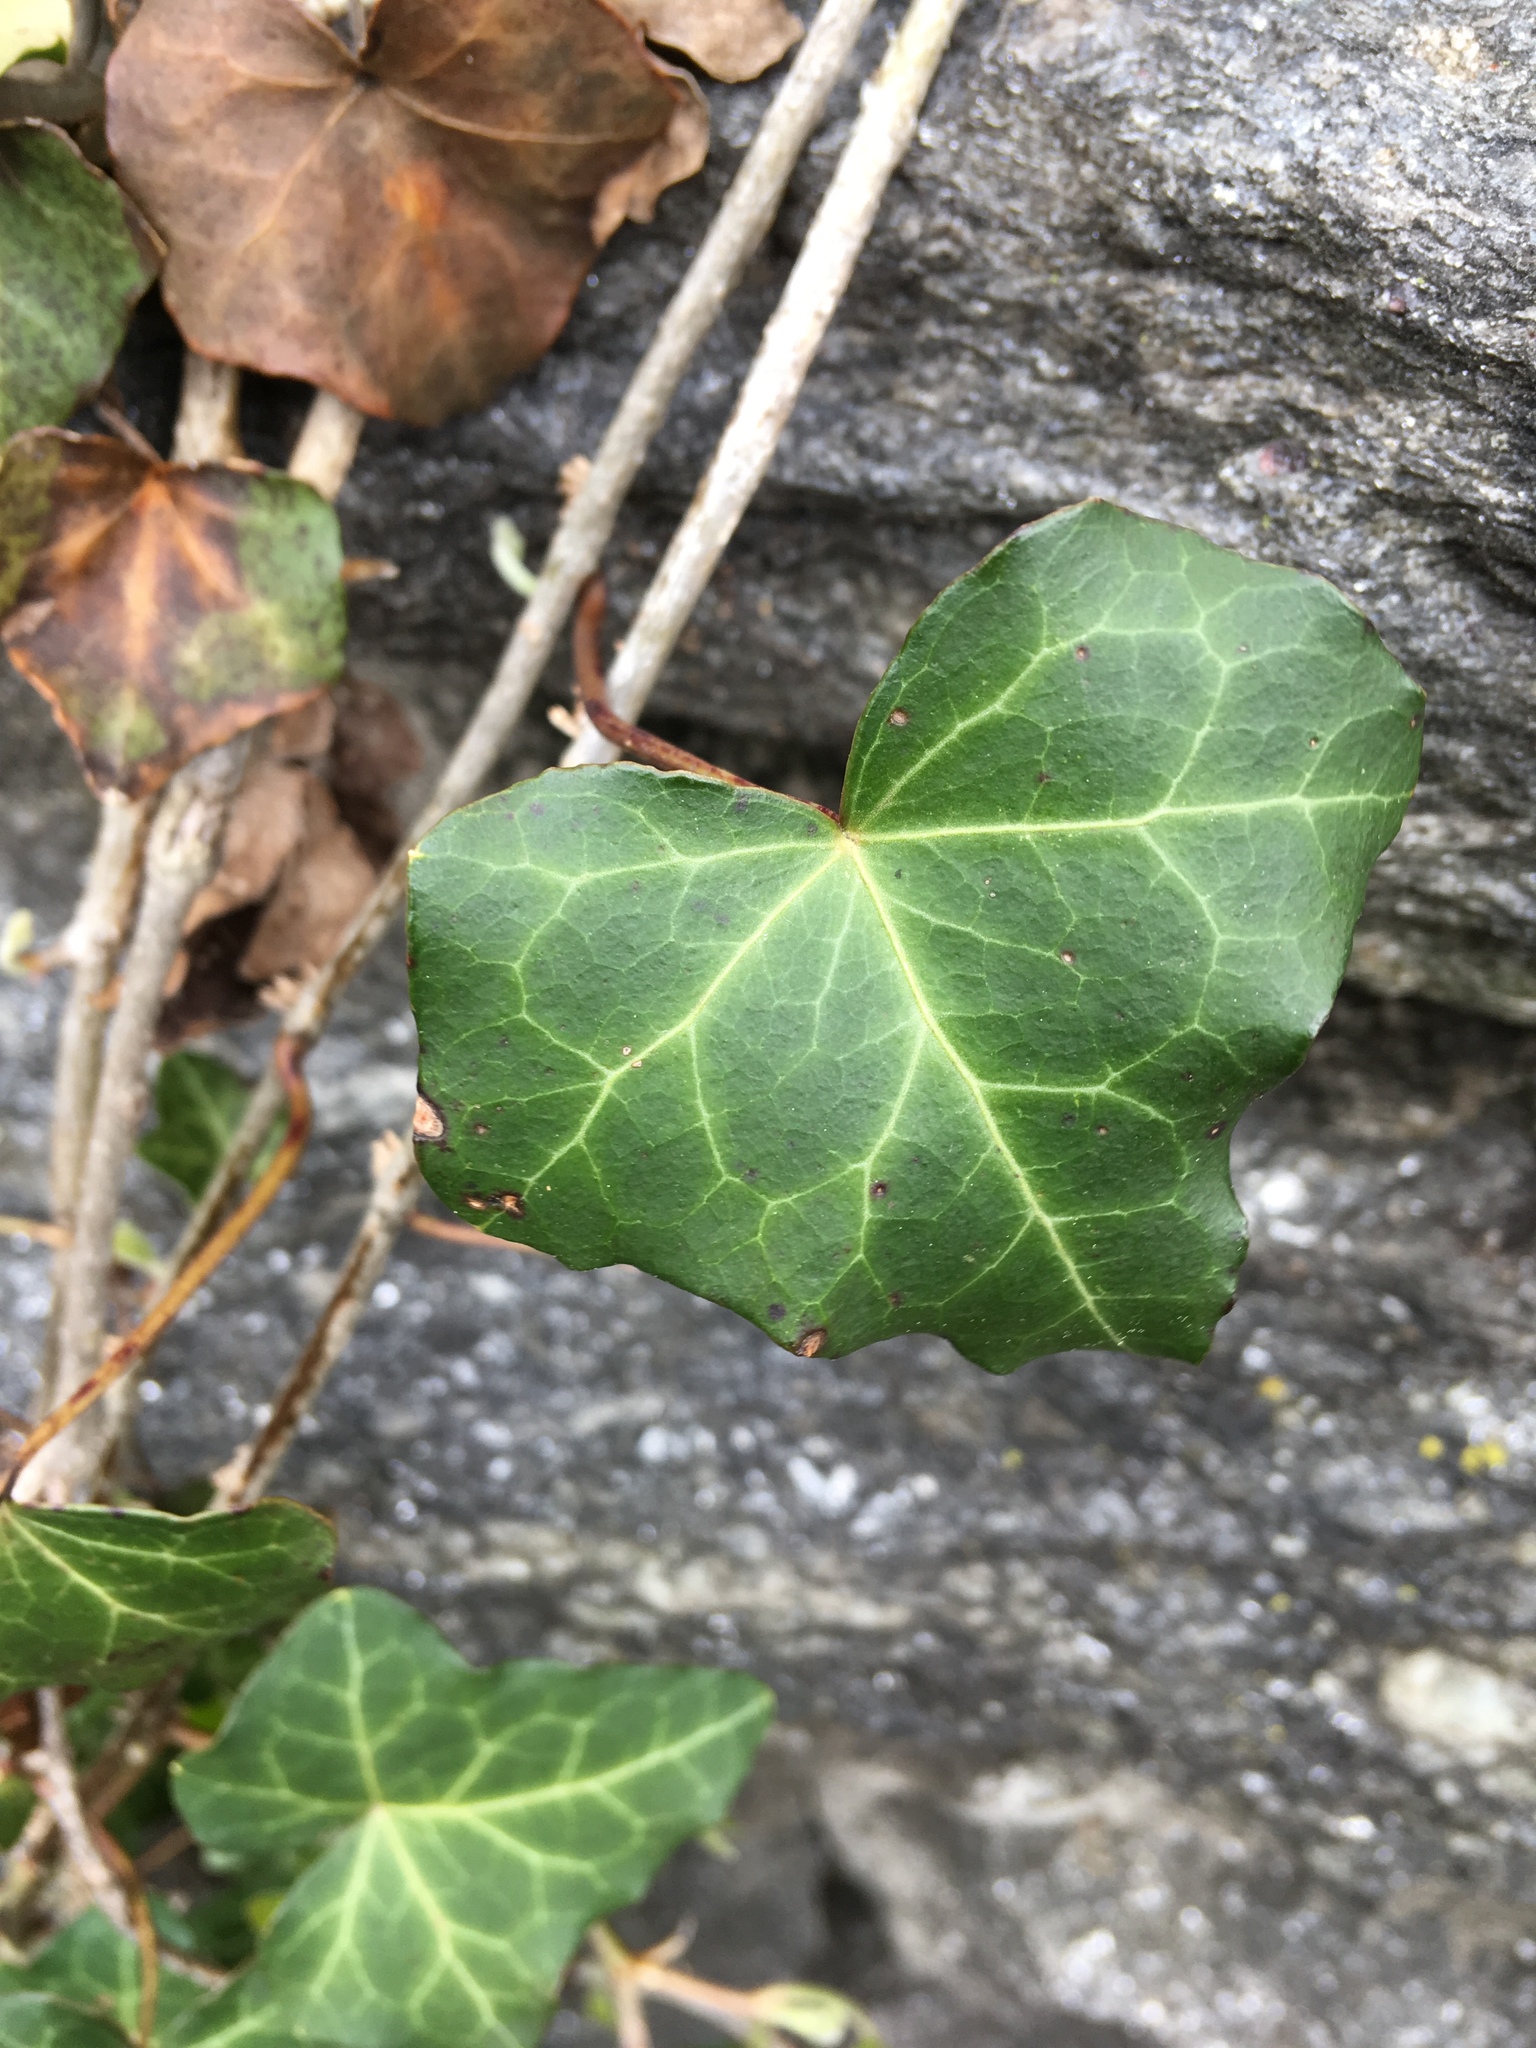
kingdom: Plantae
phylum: Tracheophyta
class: Magnoliopsida
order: Apiales
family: Araliaceae
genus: Hedera
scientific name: Hedera helix
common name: Ivy
